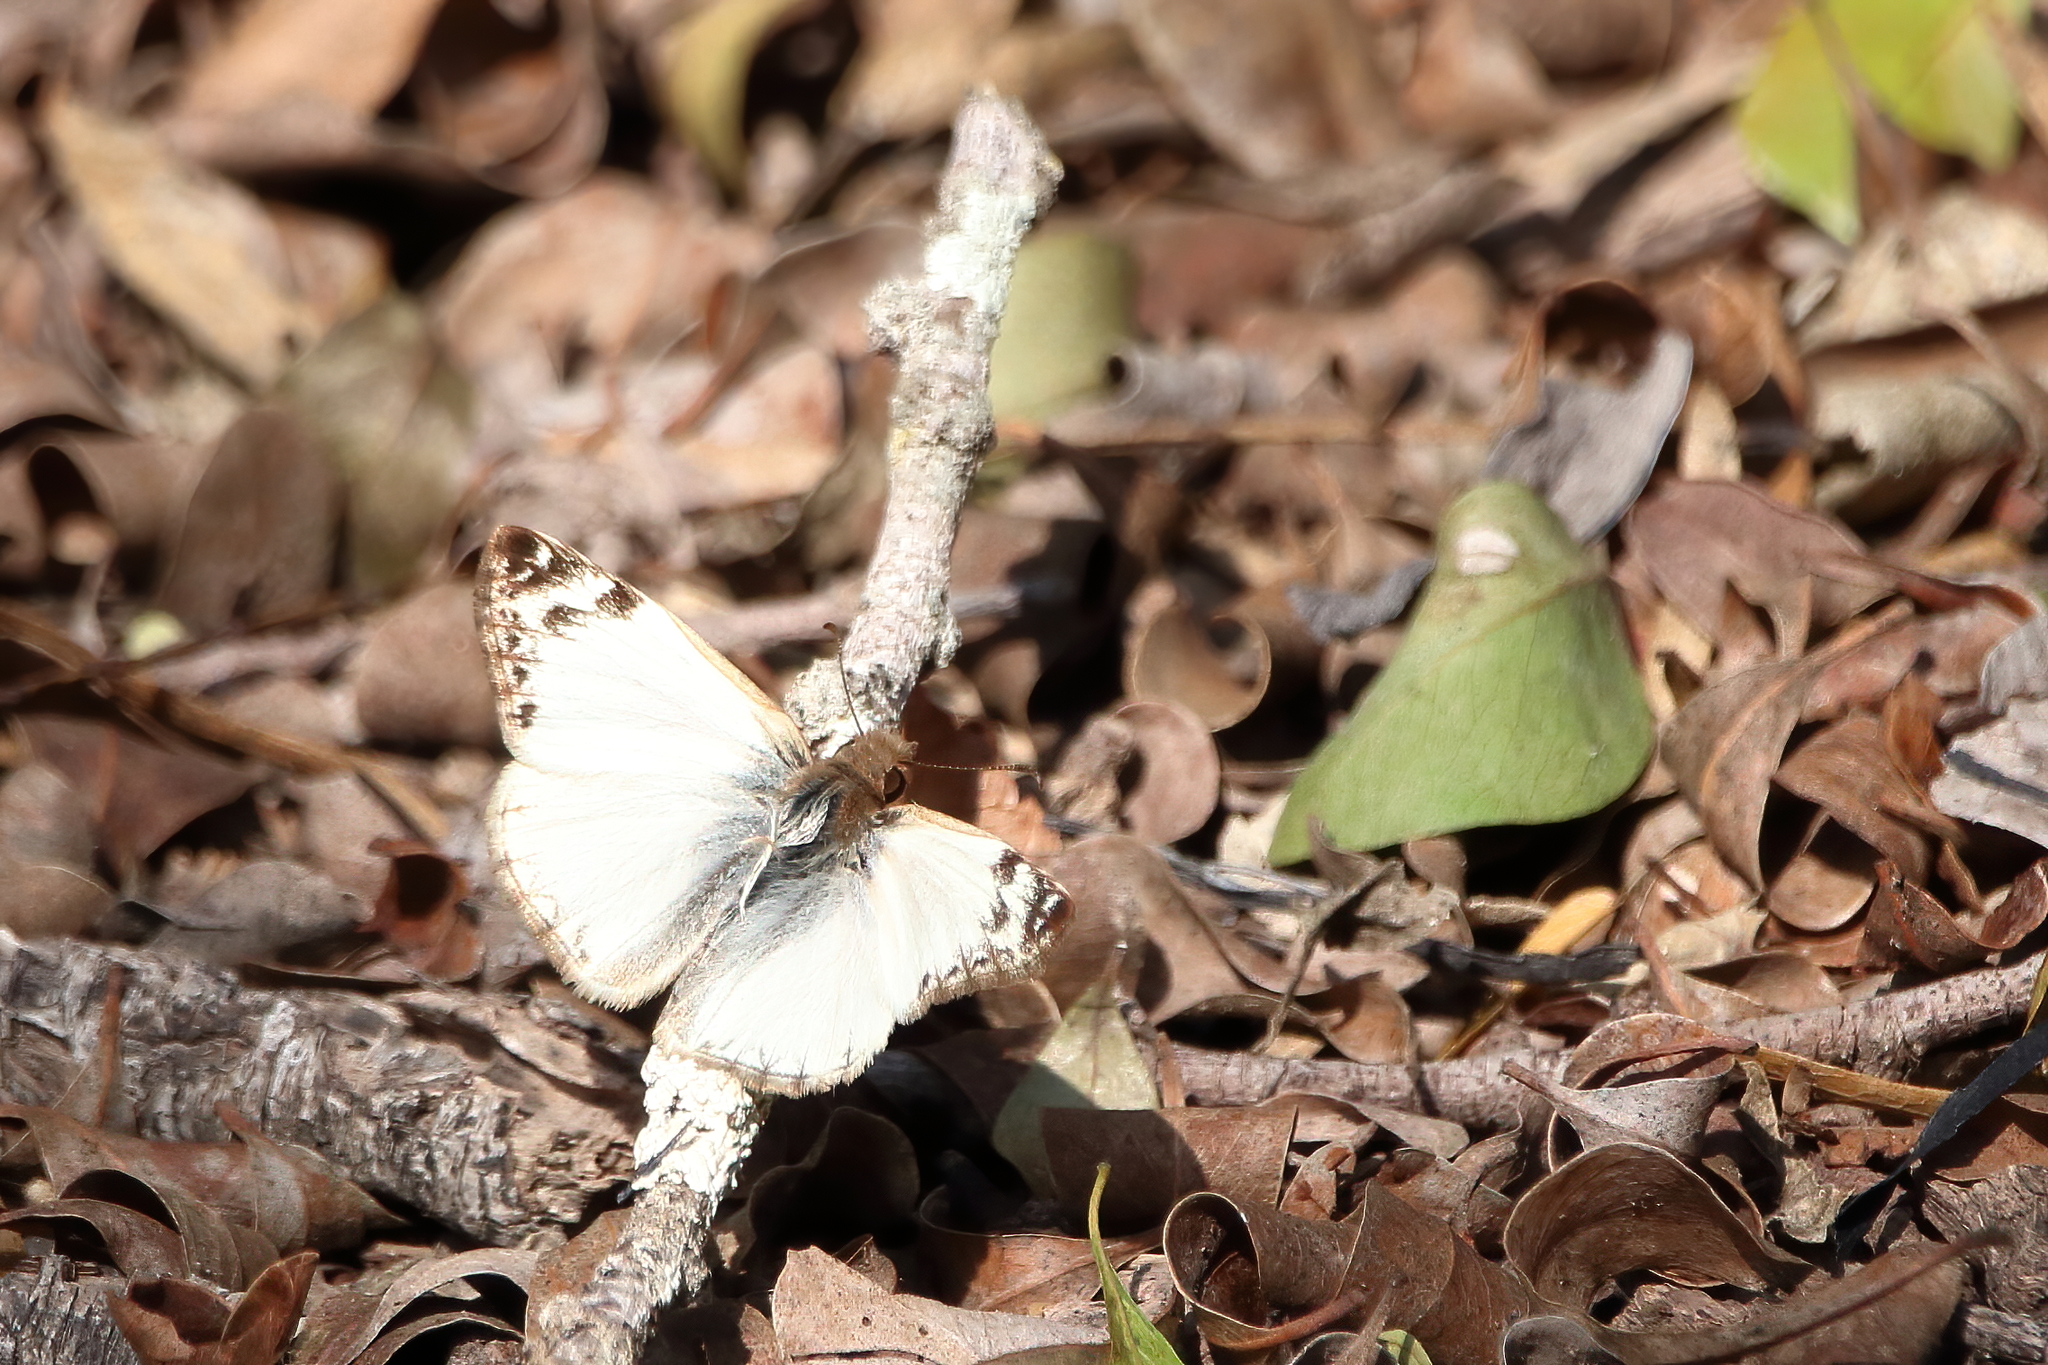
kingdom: Animalia
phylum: Arthropoda
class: Insecta
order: Lepidoptera
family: Hesperiidae
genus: Heliopetes
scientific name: Heliopetes laviana
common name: Laviana white-skipper
